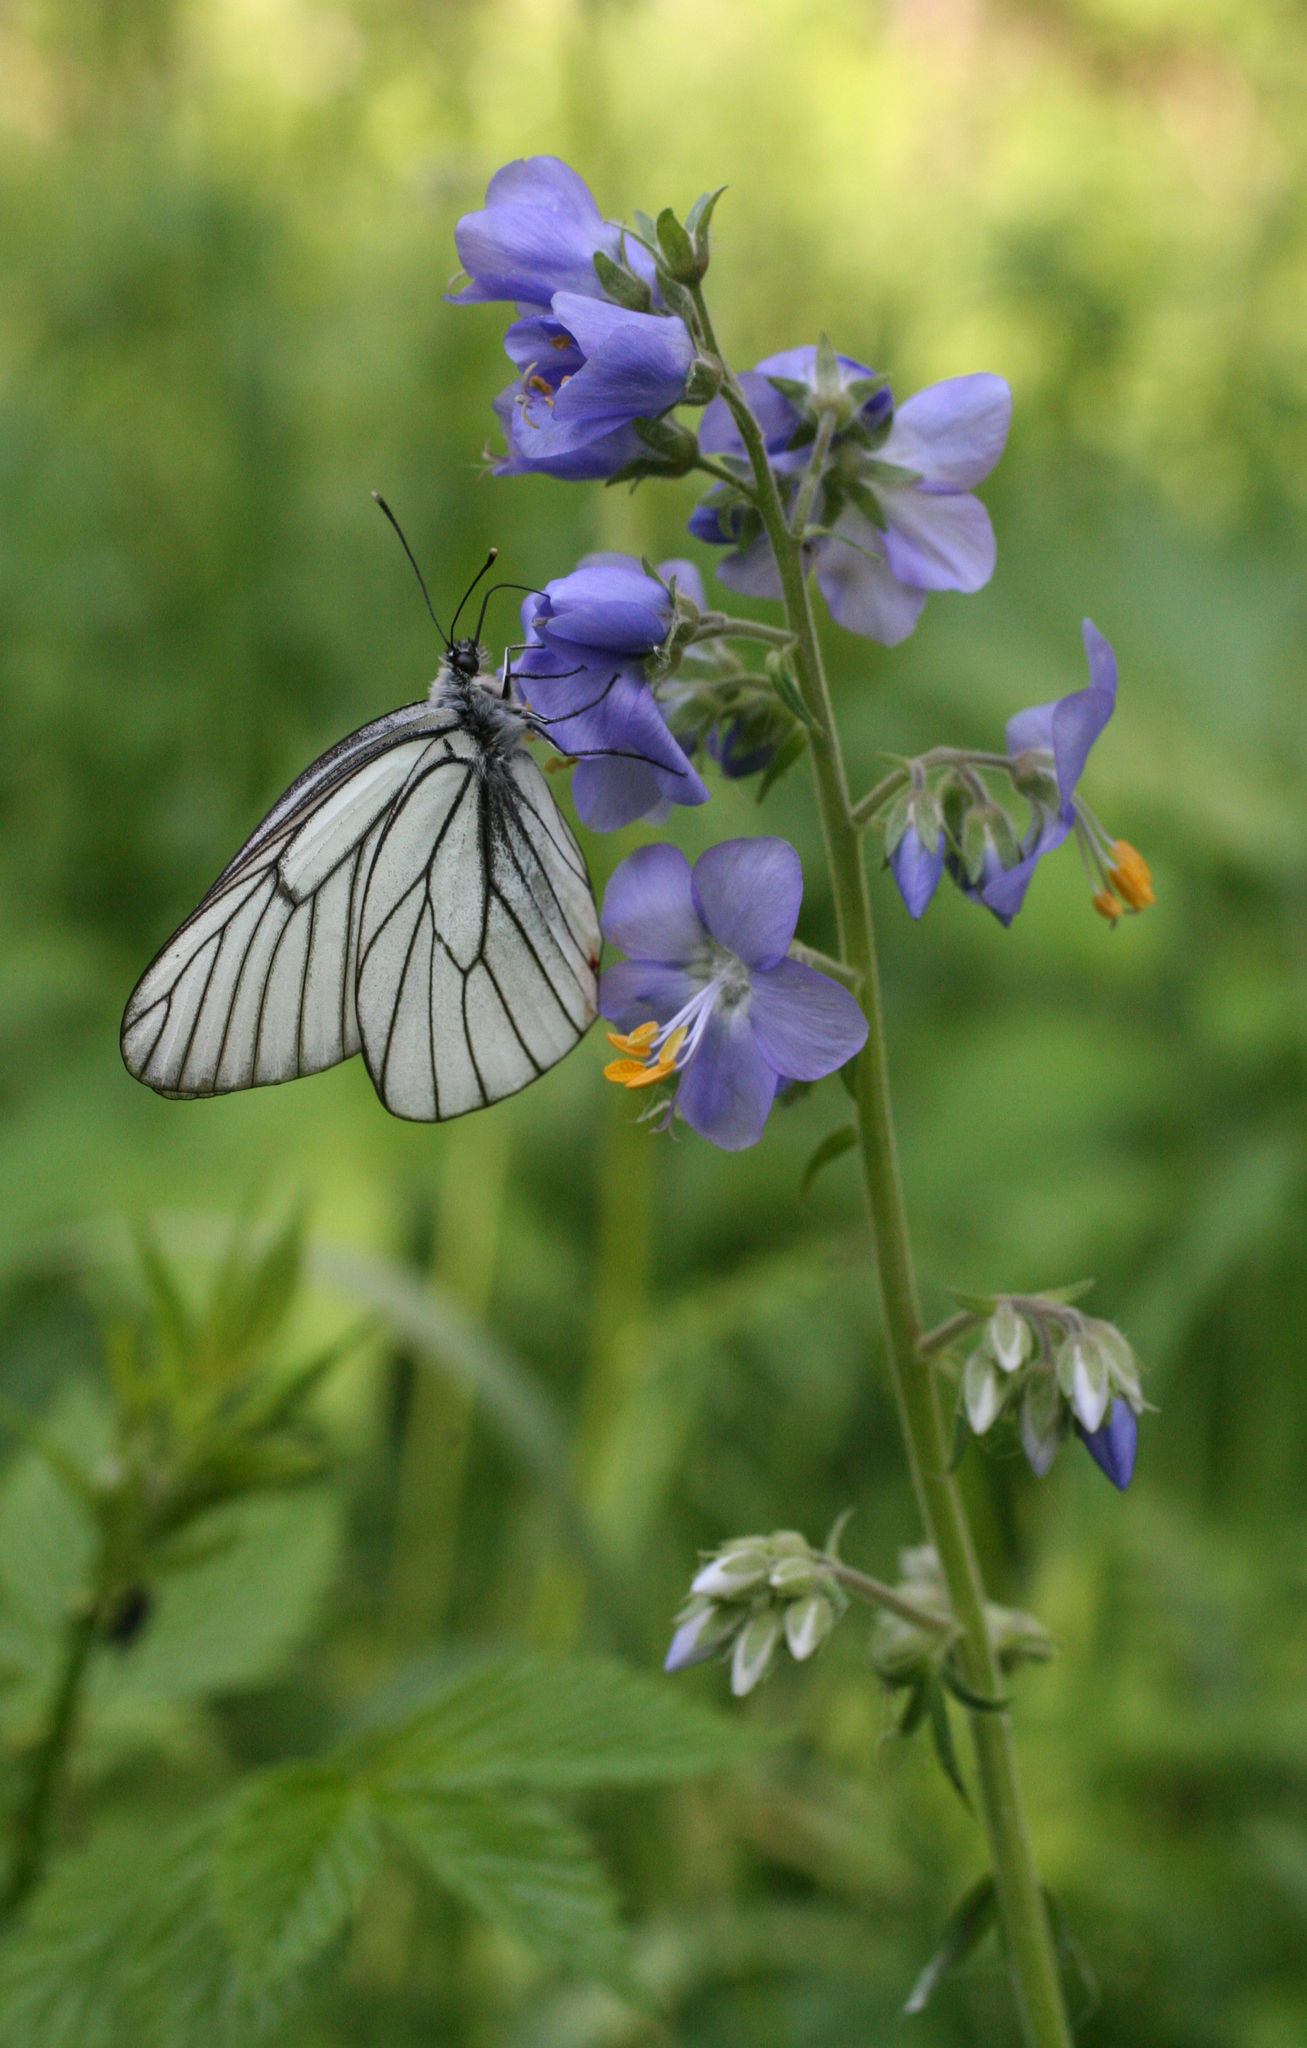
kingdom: Animalia
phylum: Arthropoda
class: Insecta
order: Lepidoptera
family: Pieridae
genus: Aporia
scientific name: Aporia crataegi
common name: Black-veined white
